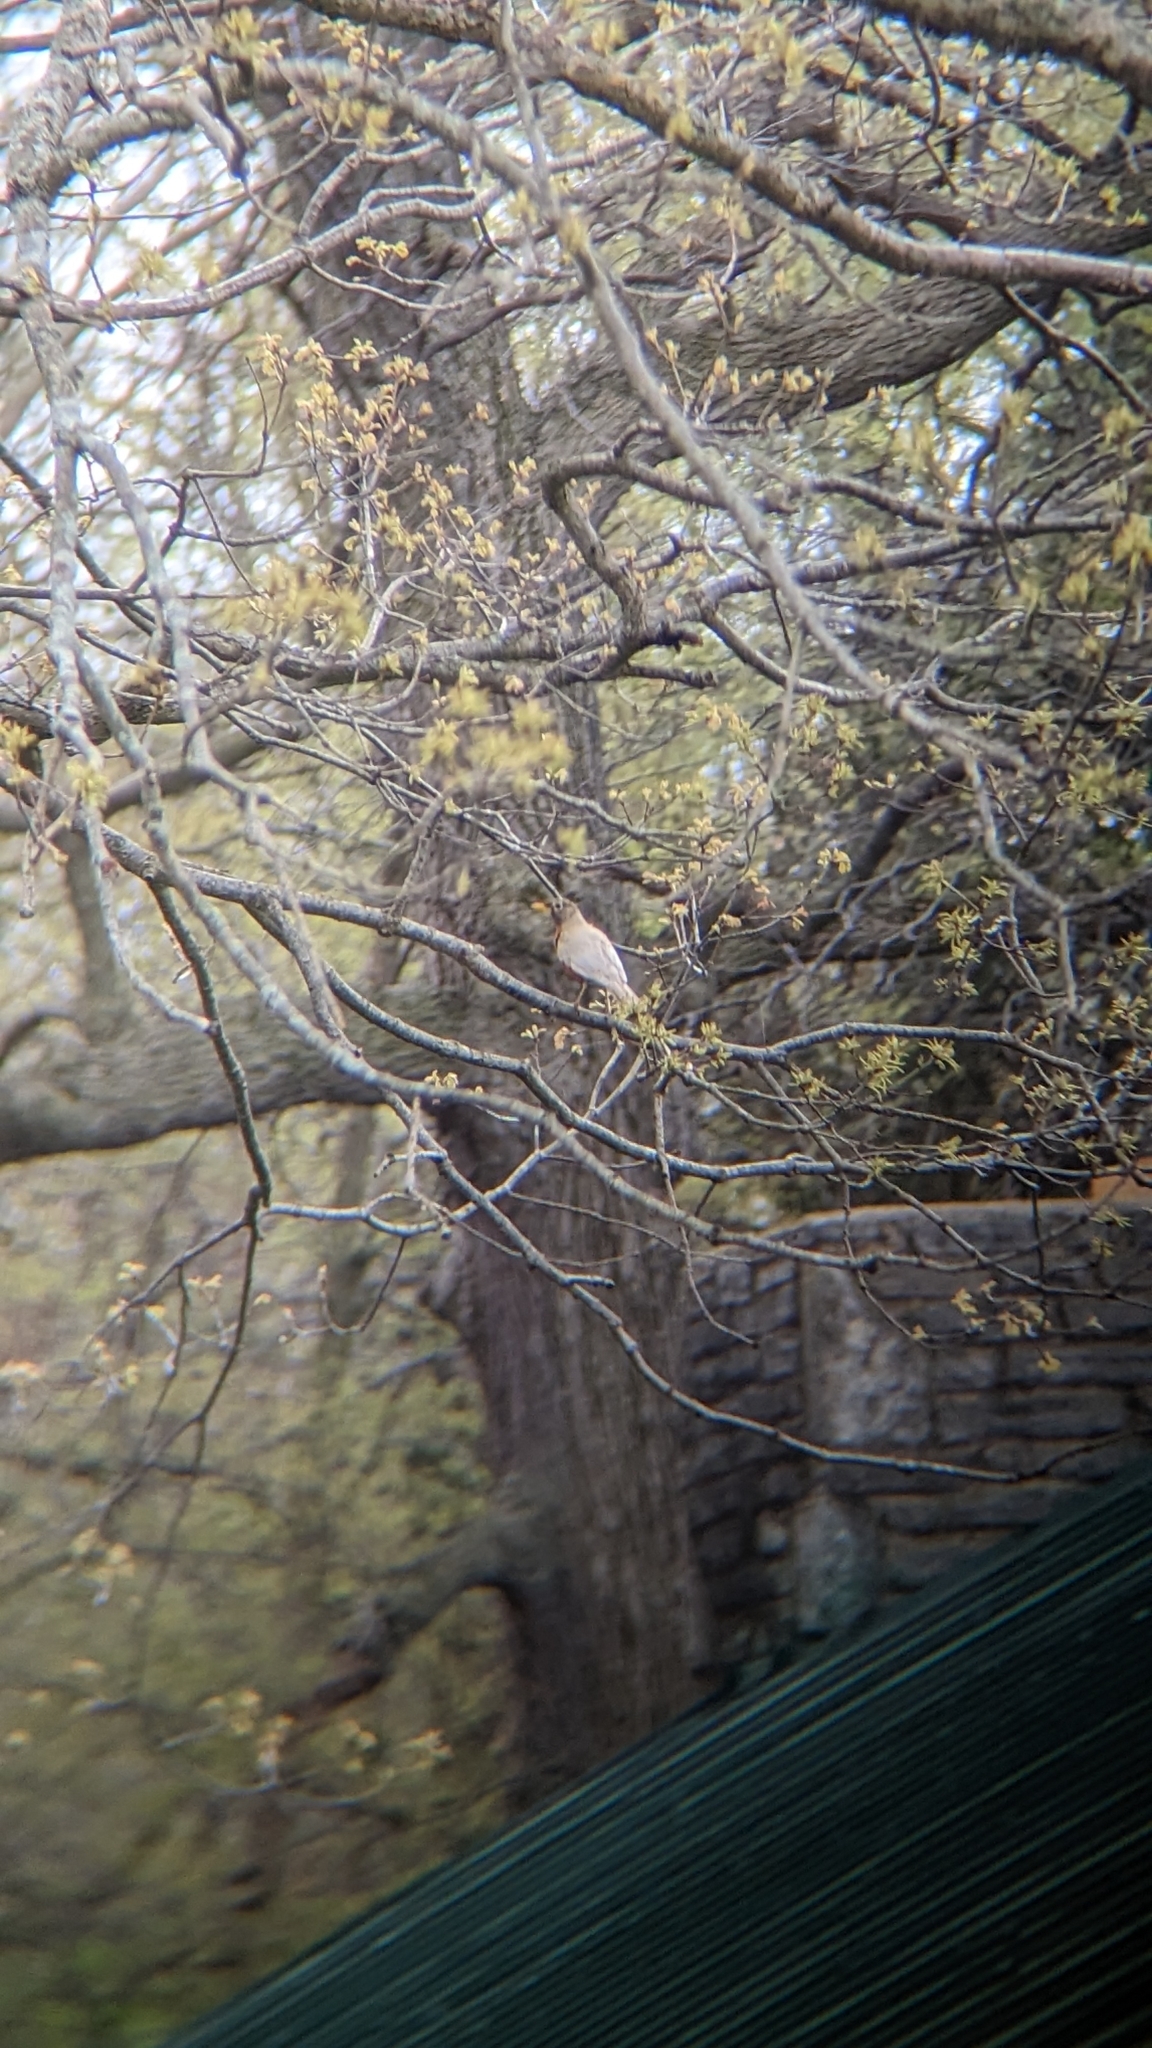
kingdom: Animalia
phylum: Chordata
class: Aves
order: Passeriformes
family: Turdidae
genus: Turdus
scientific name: Turdus migratorius
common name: American robin
